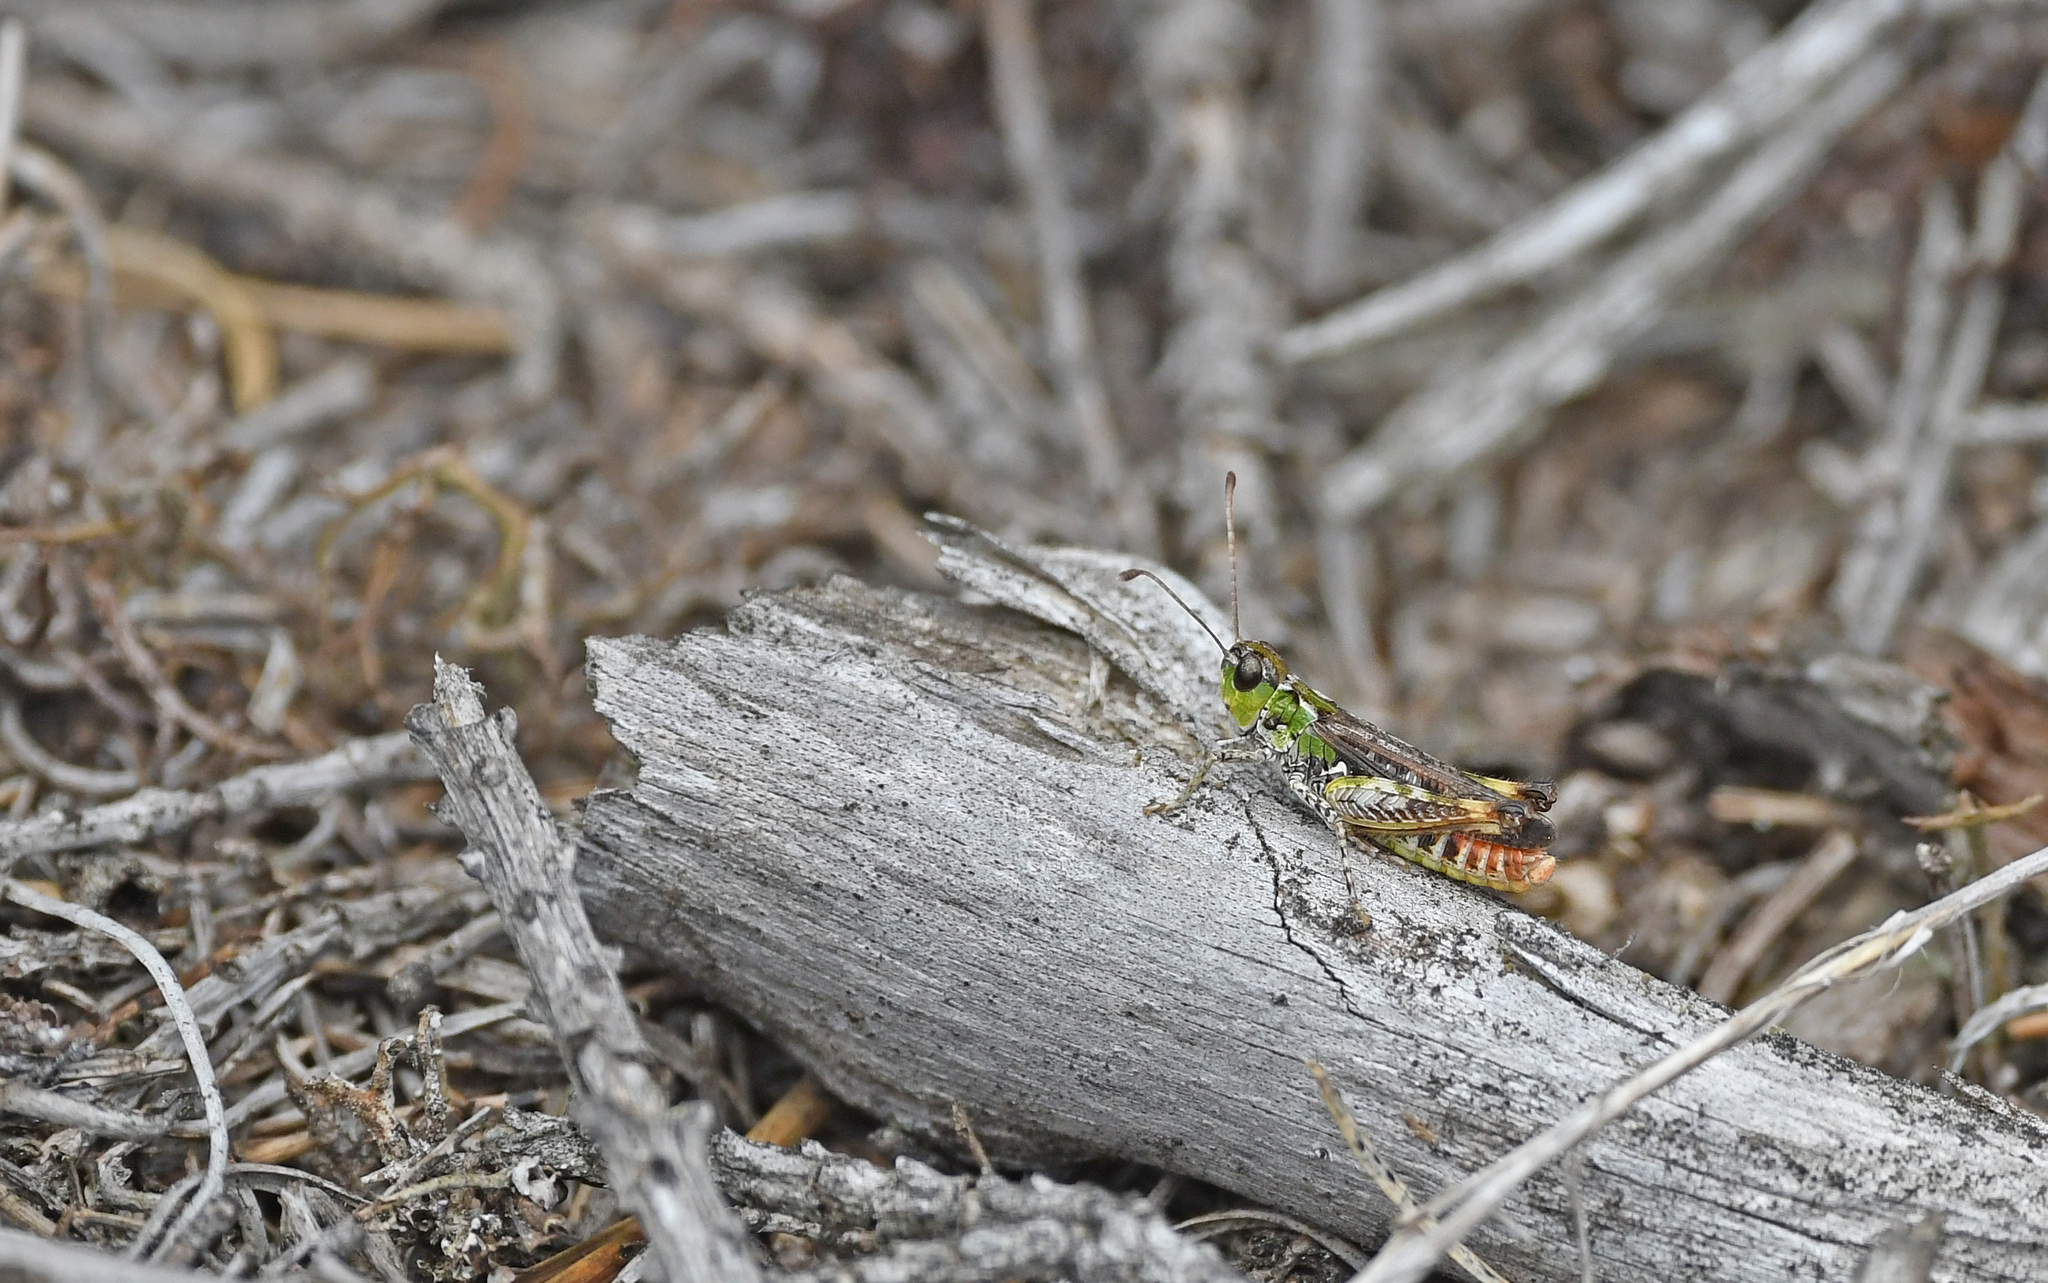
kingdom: Animalia
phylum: Arthropoda
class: Insecta
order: Orthoptera
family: Acrididae
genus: Myrmeleotettix
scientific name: Myrmeleotettix maculatus
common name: Mottled grasshopper
